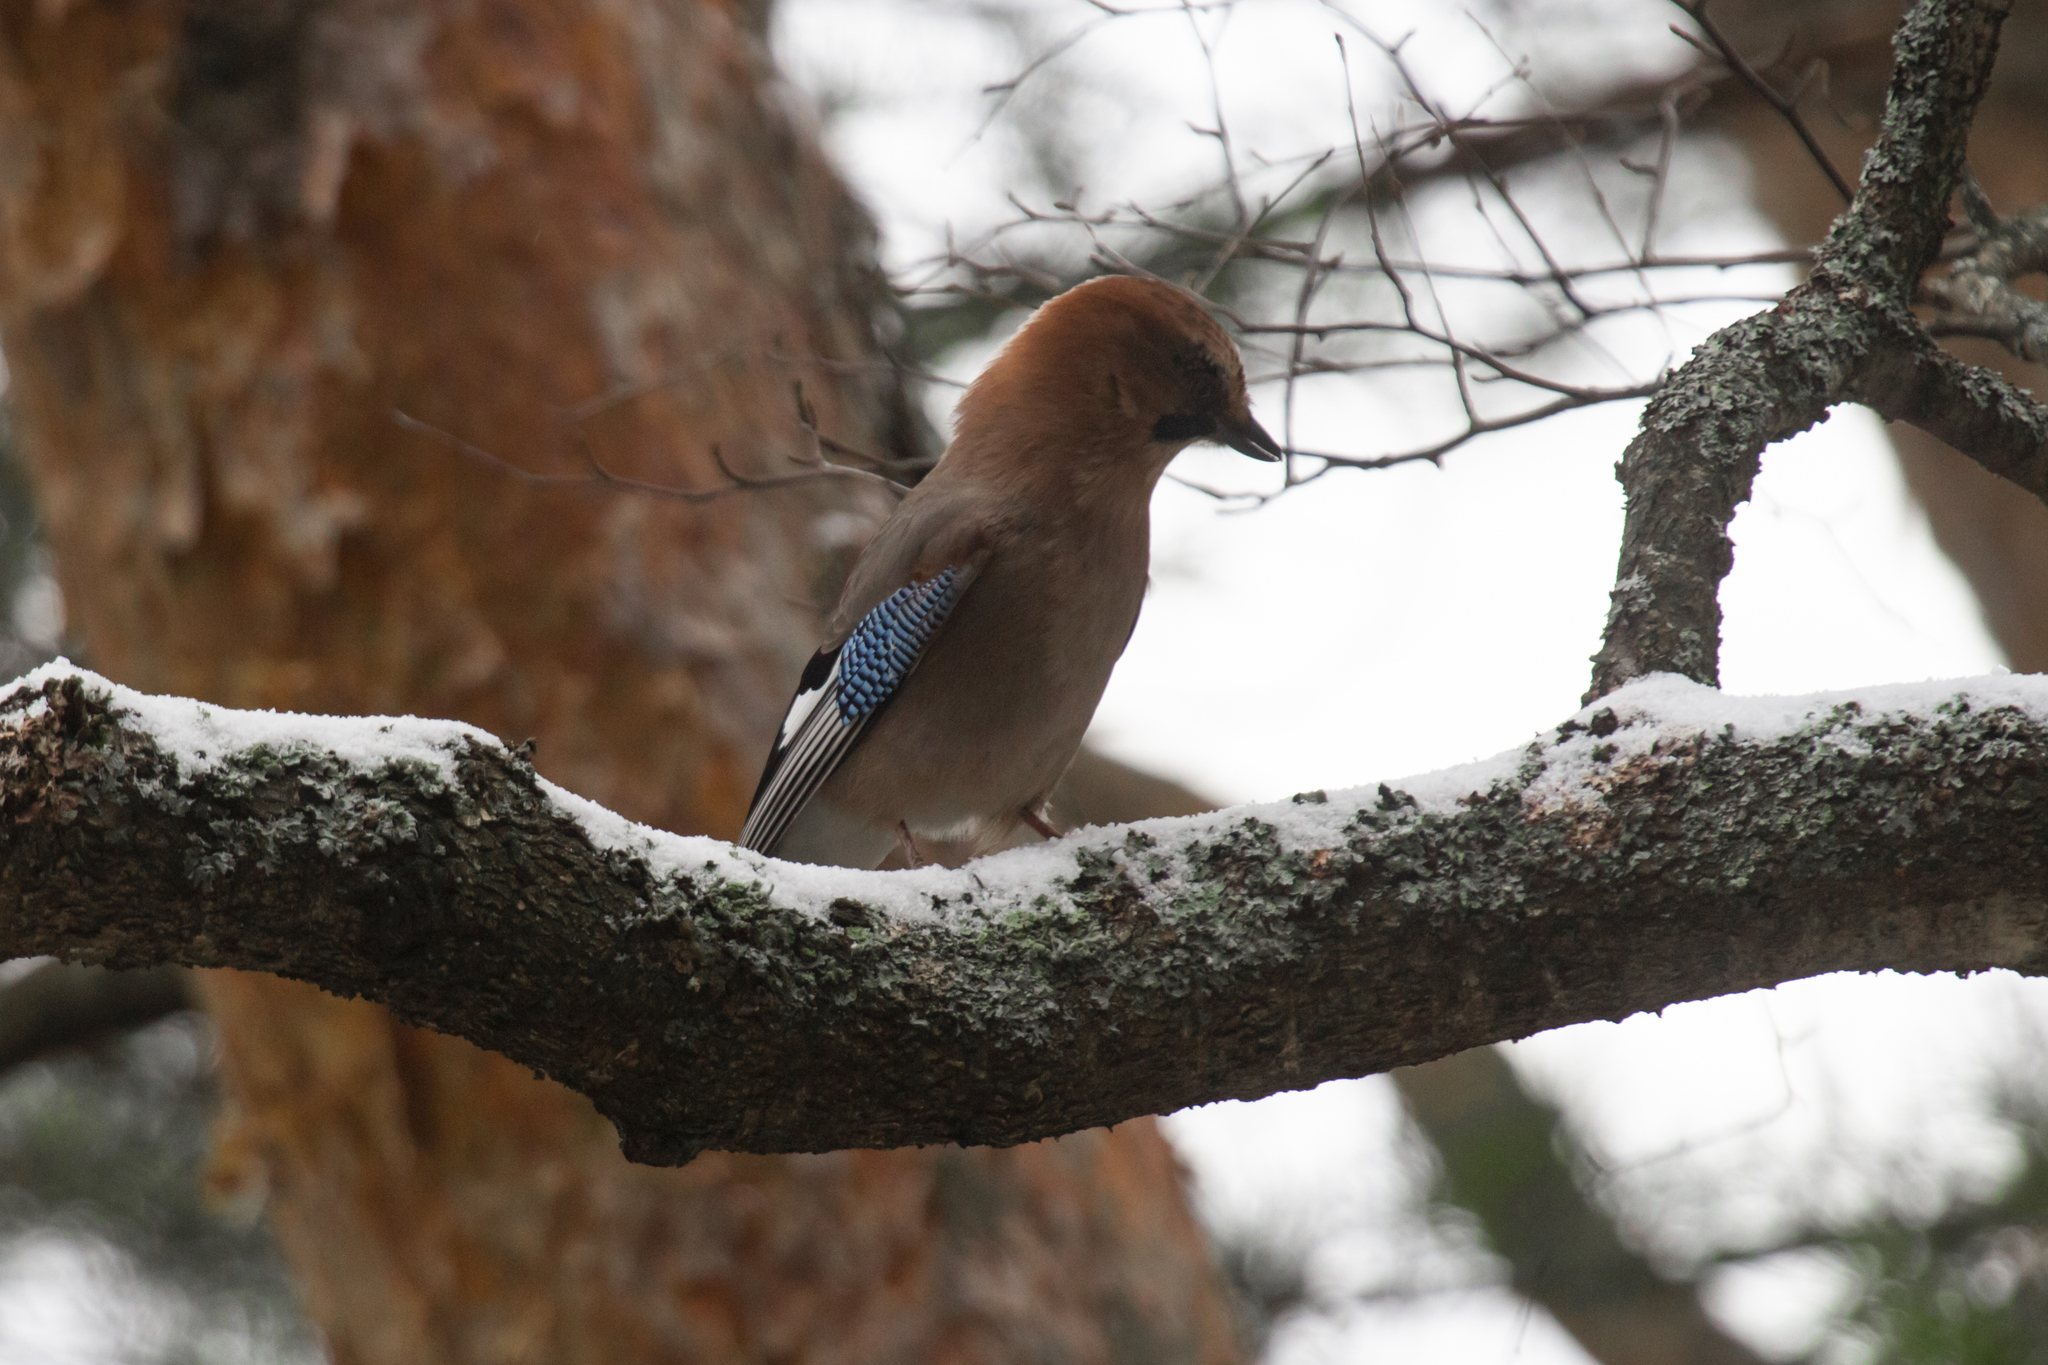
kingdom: Animalia
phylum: Chordata
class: Aves
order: Passeriformes
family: Corvidae
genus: Garrulus
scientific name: Garrulus glandarius
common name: Eurasian jay
